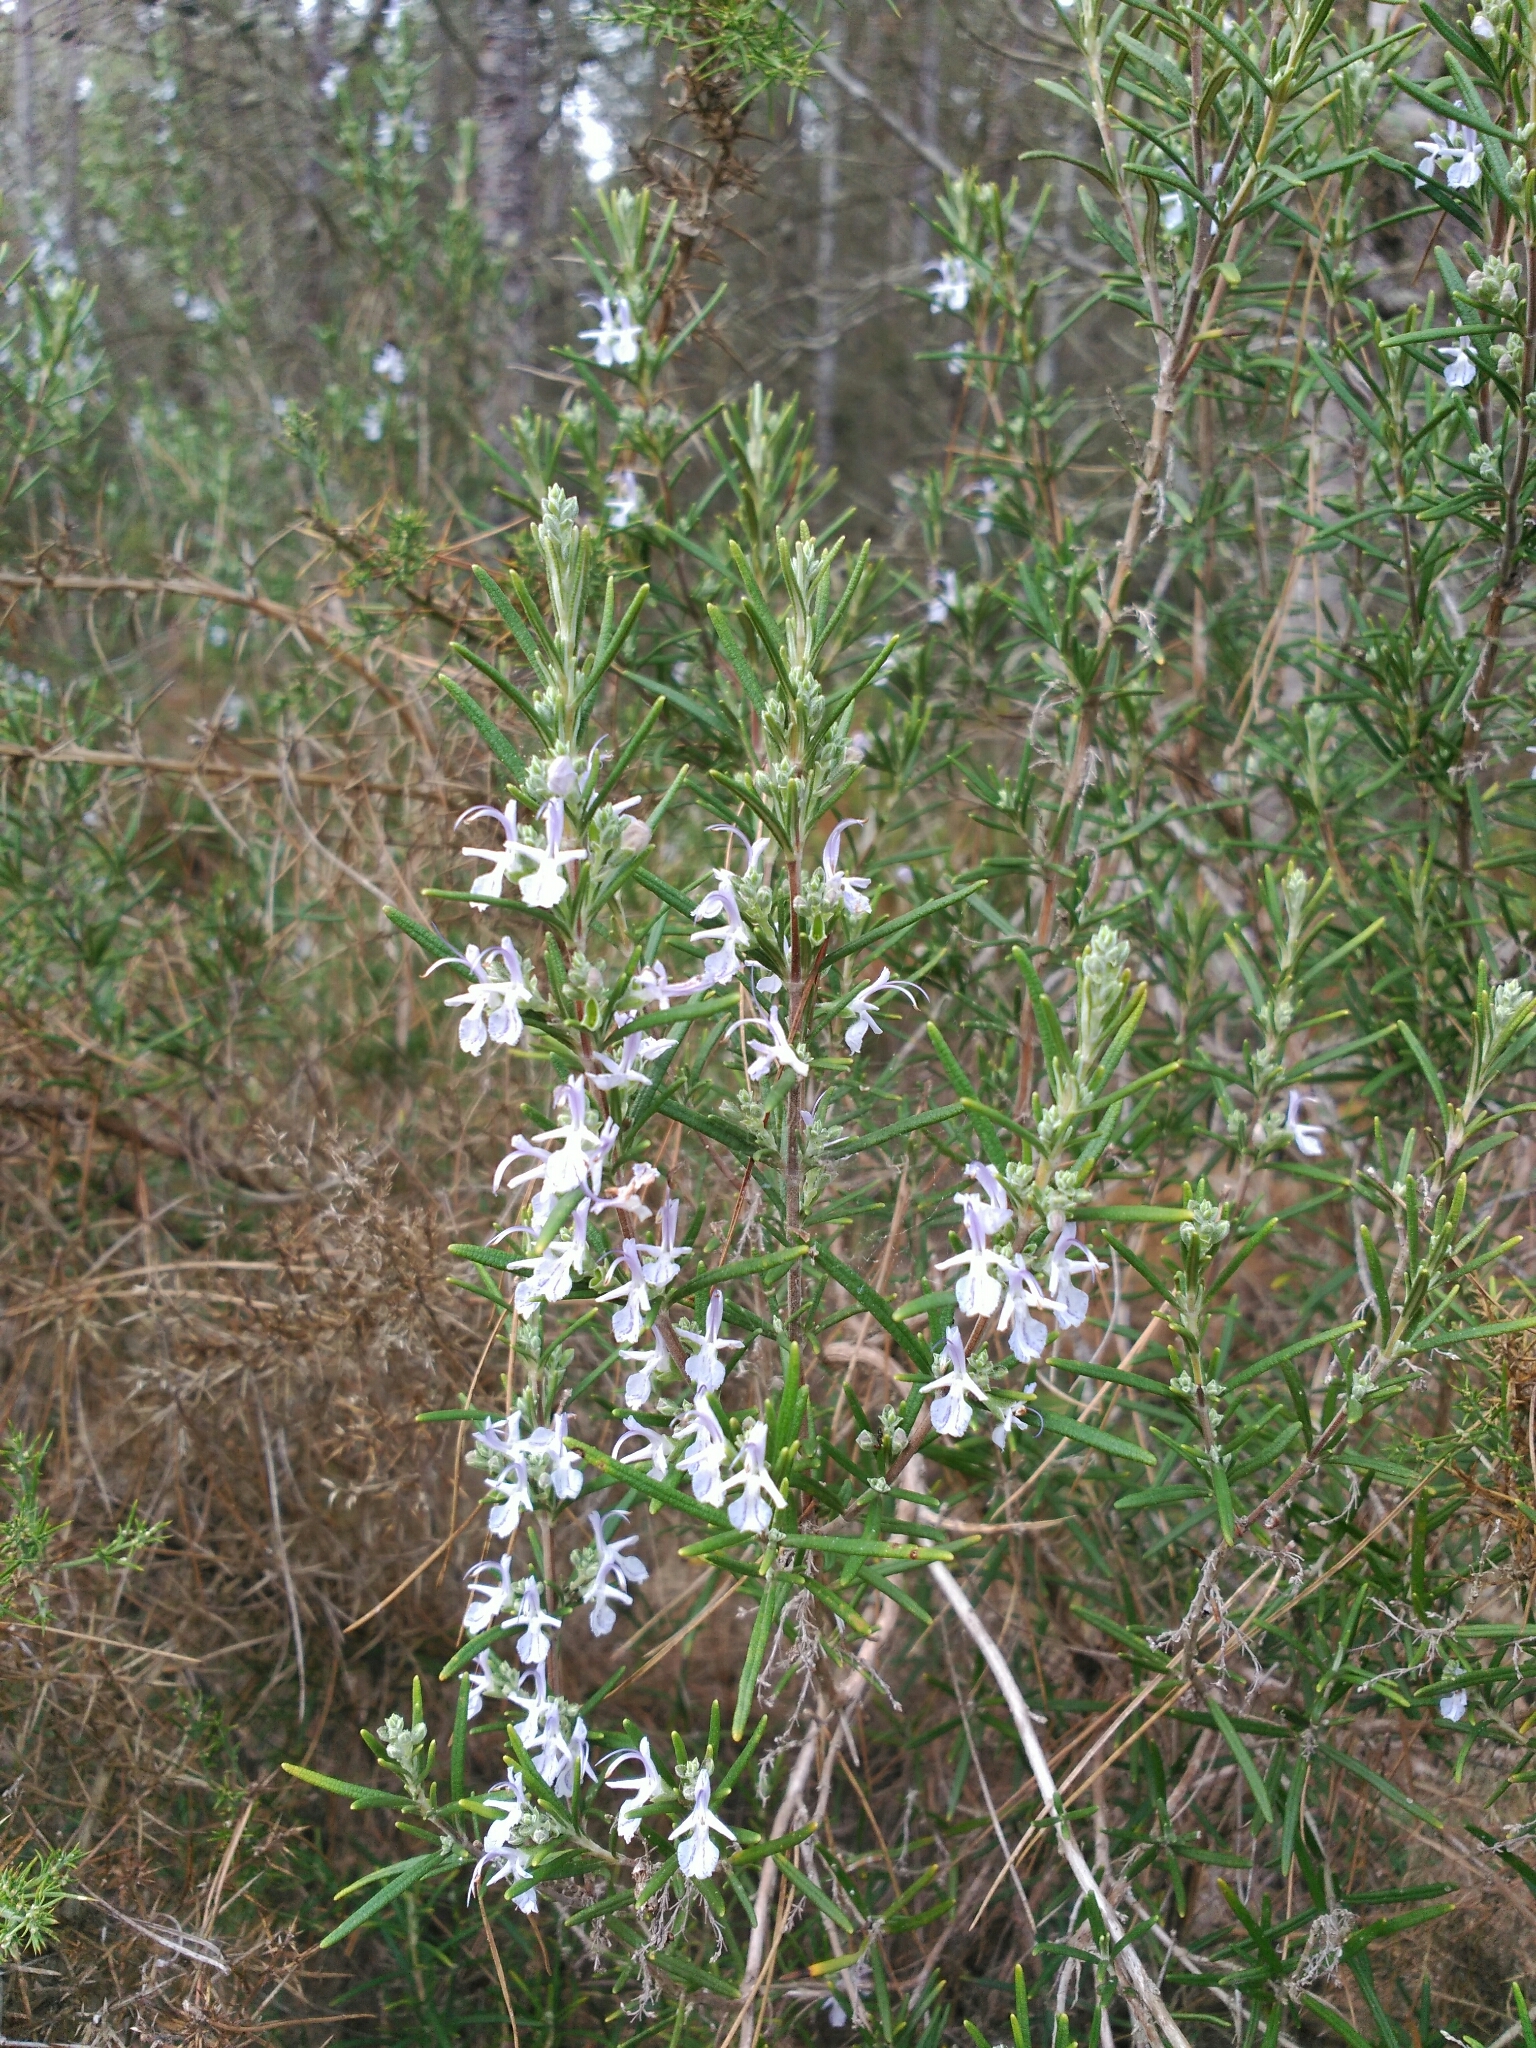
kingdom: Plantae
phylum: Tracheophyta
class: Magnoliopsida
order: Lamiales
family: Lamiaceae
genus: Salvia
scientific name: Salvia rosmarinus
